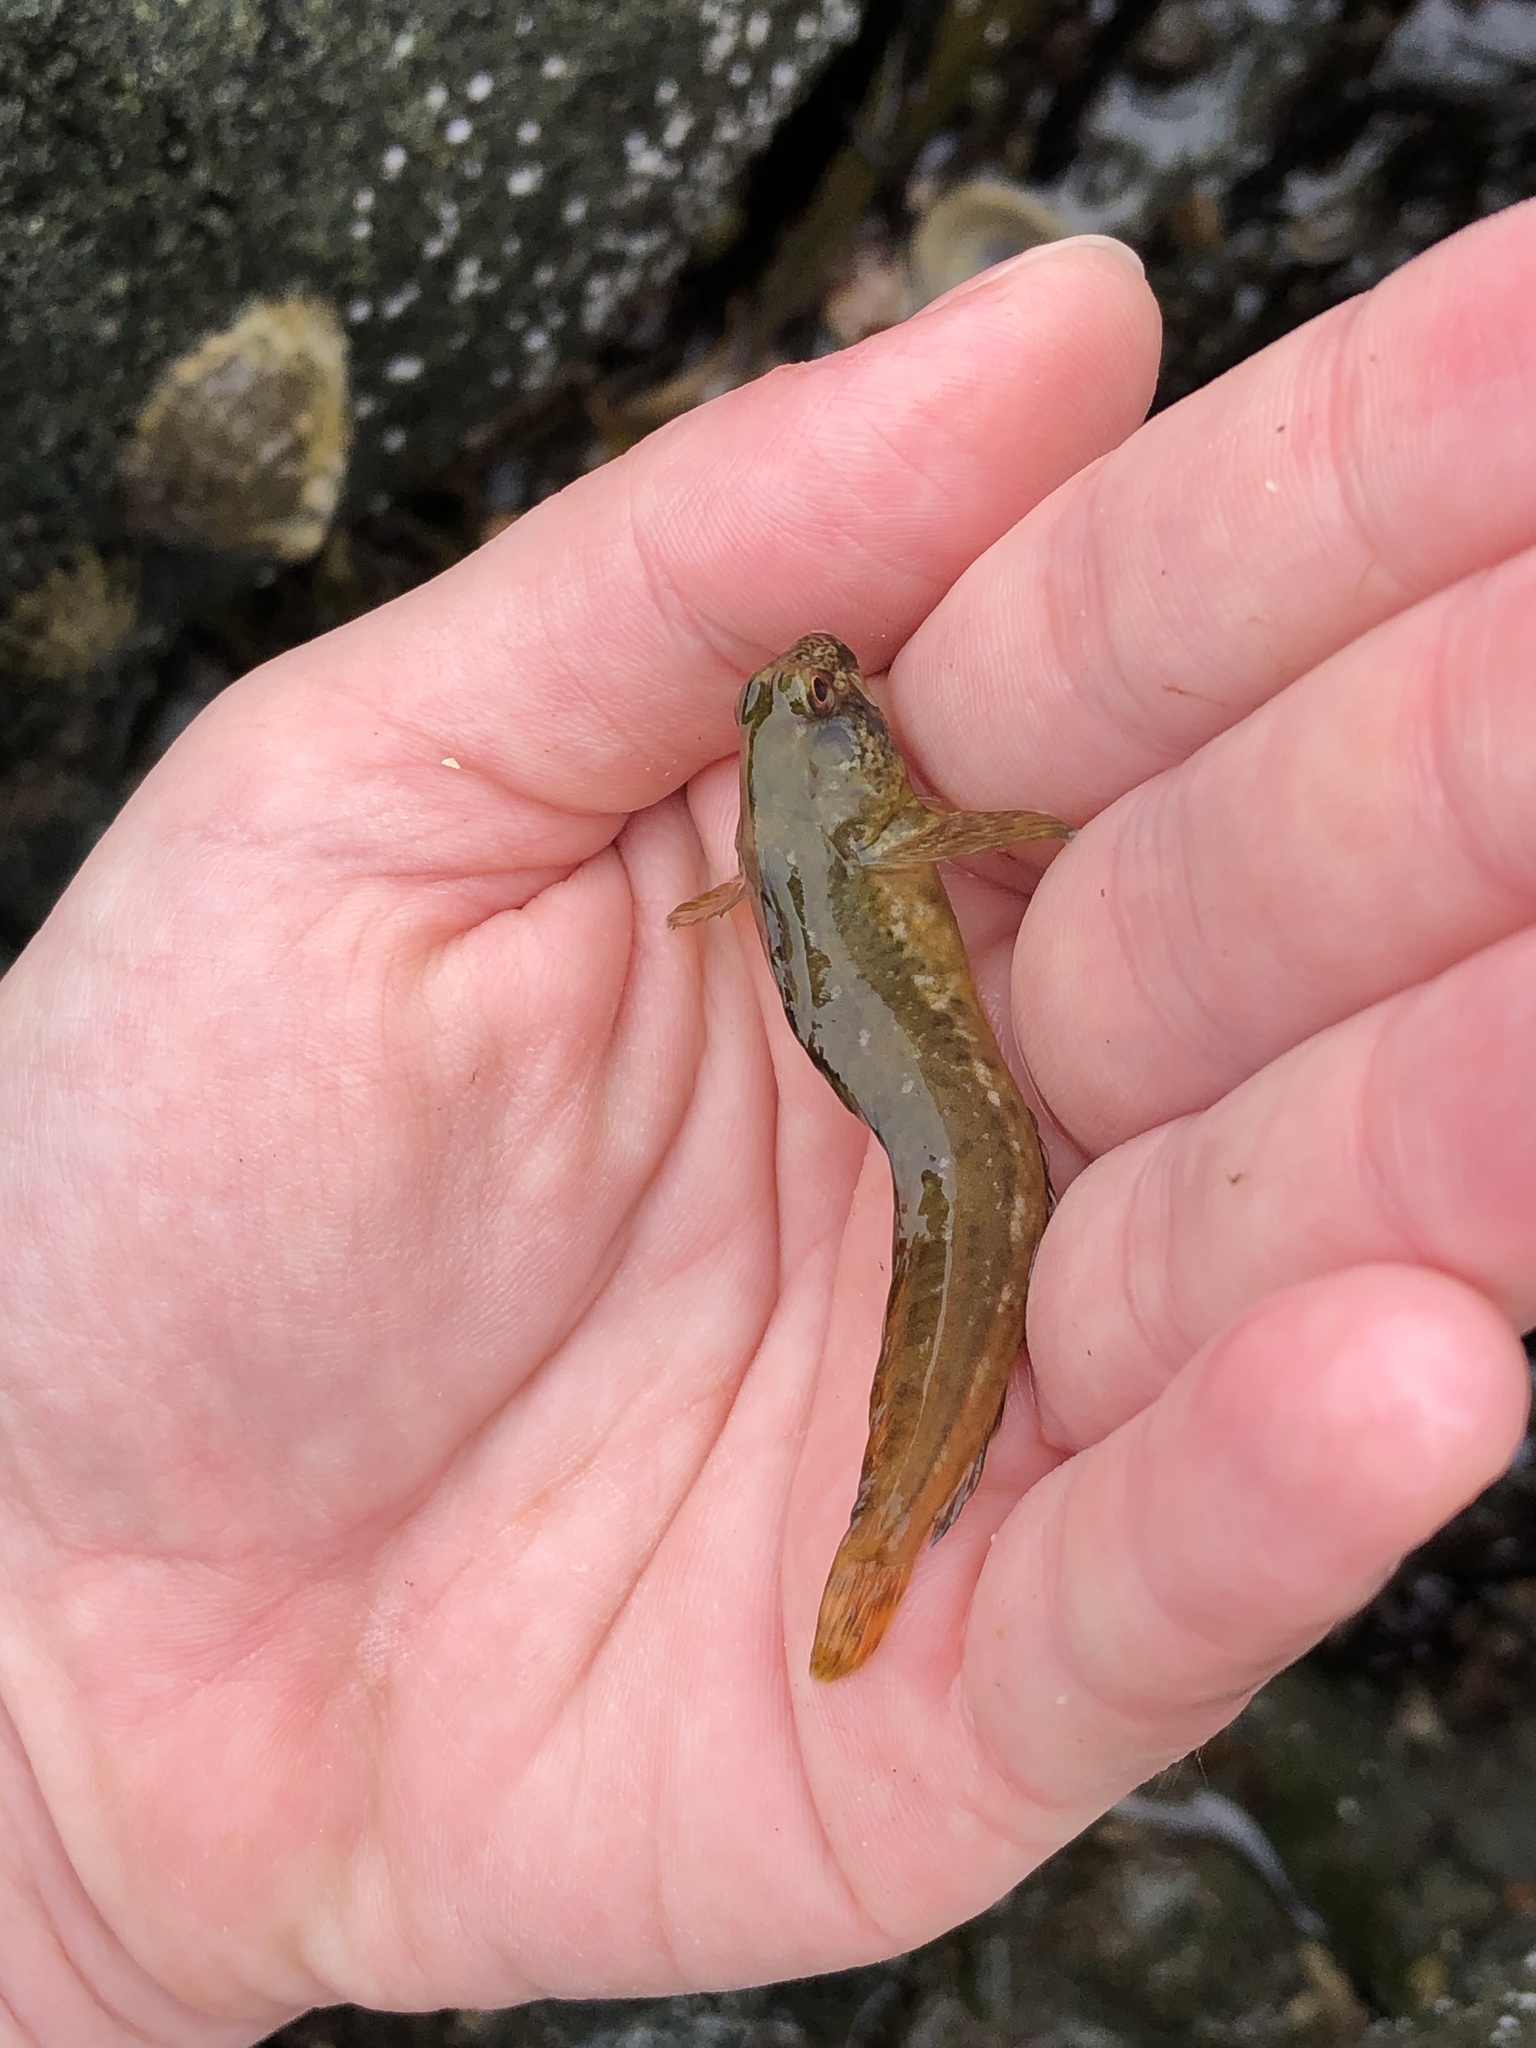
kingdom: Animalia
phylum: Chordata
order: Perciformes
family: Blenniidae
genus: Lipophrys
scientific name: Lipophrys pholis
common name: Shanny
